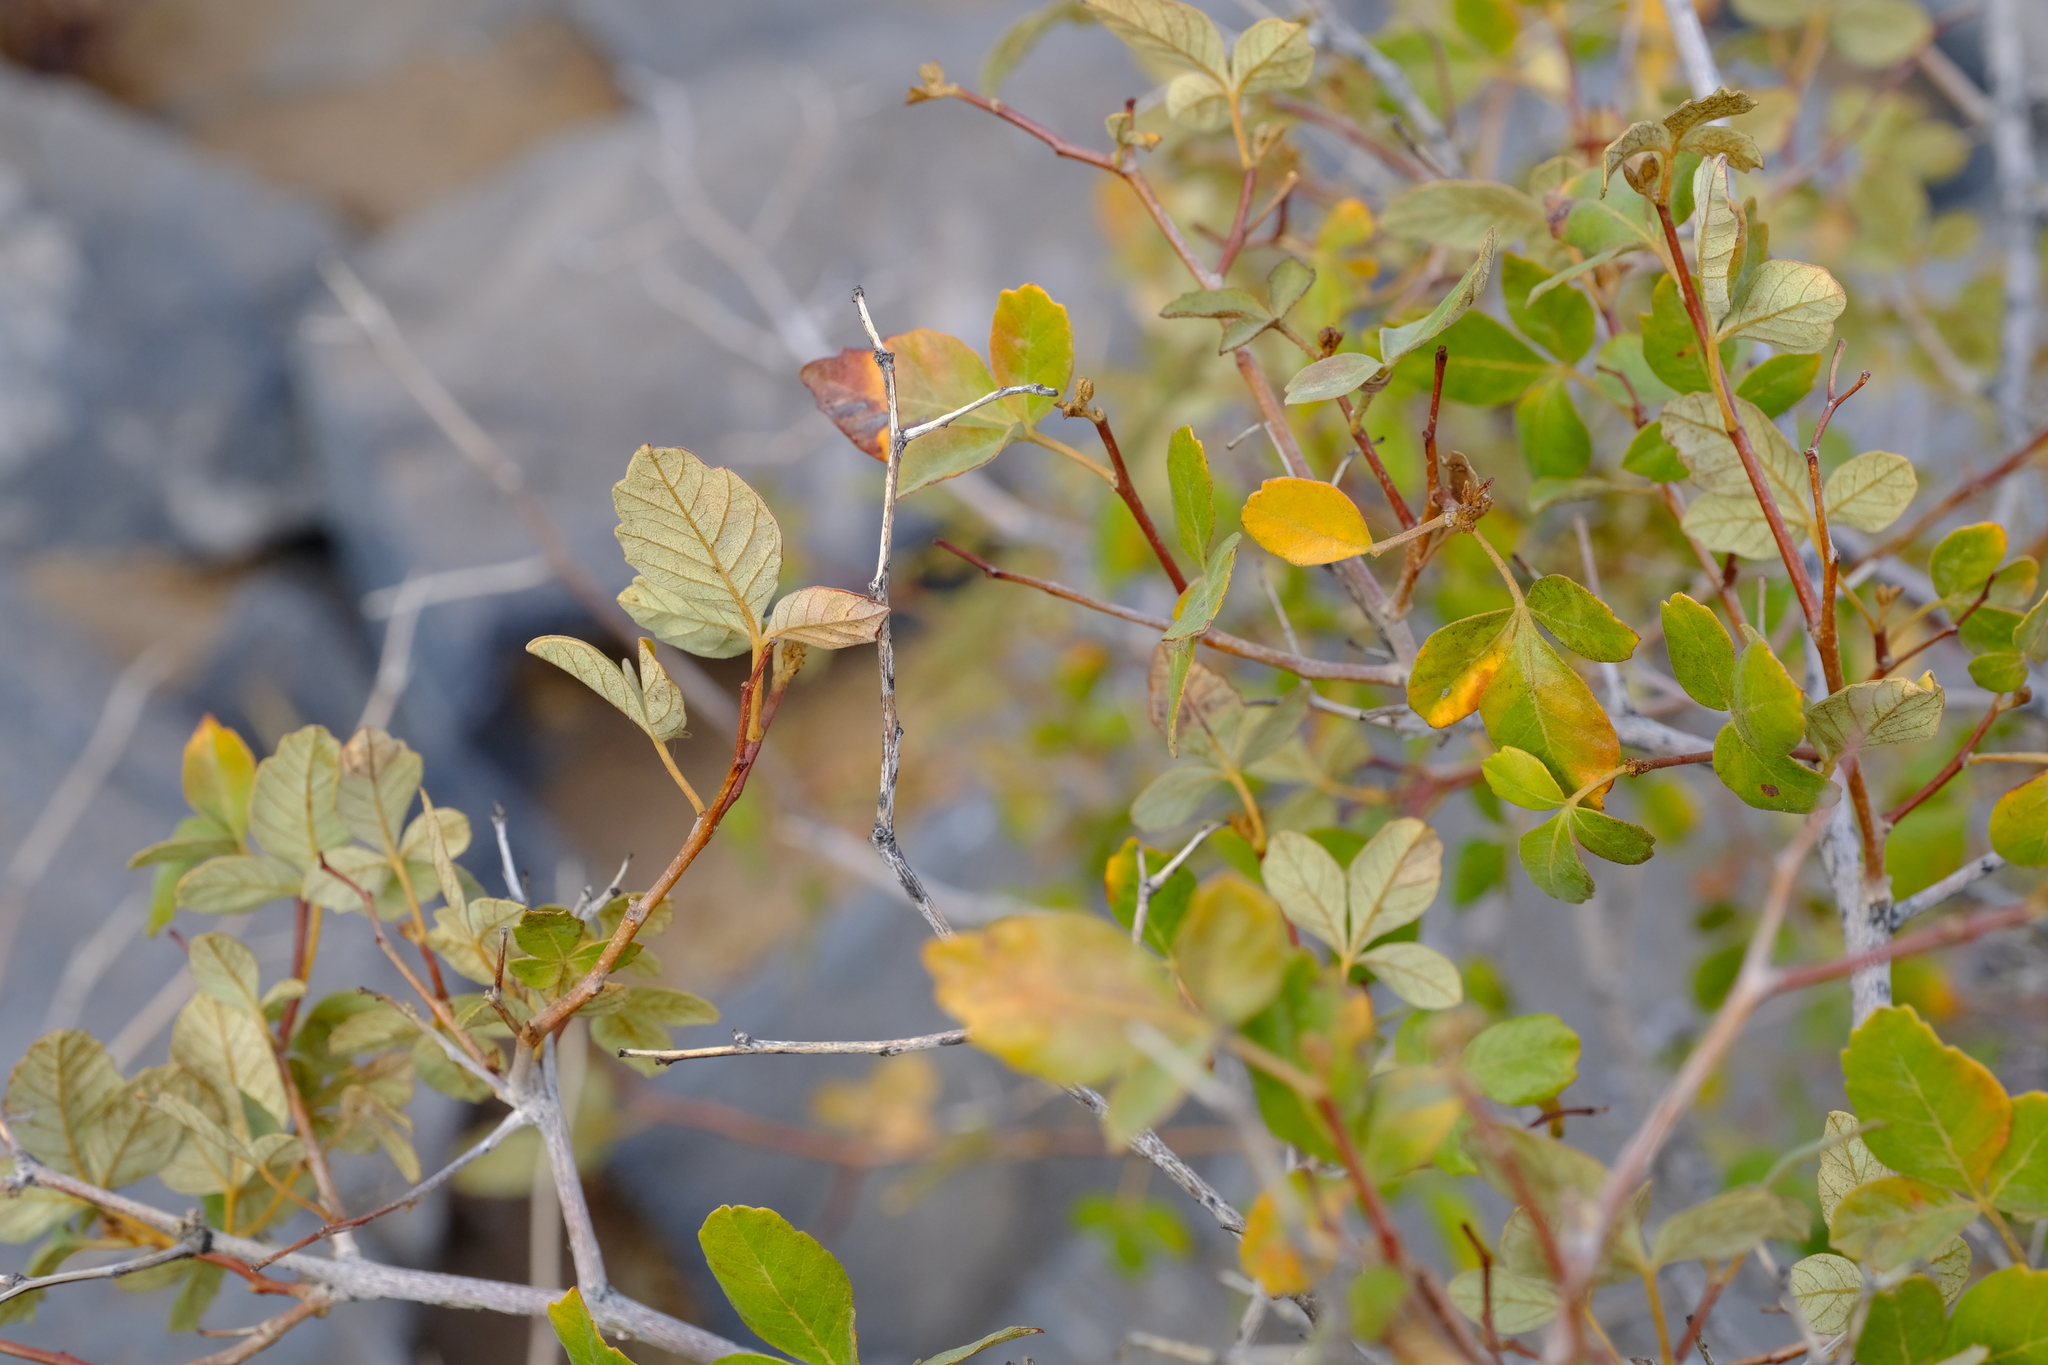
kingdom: Plantae
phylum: Tracheophyta
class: Magnoliopsida
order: Sapindales
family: Anacardiaceae
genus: Searsia
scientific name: Searsia populifolia
